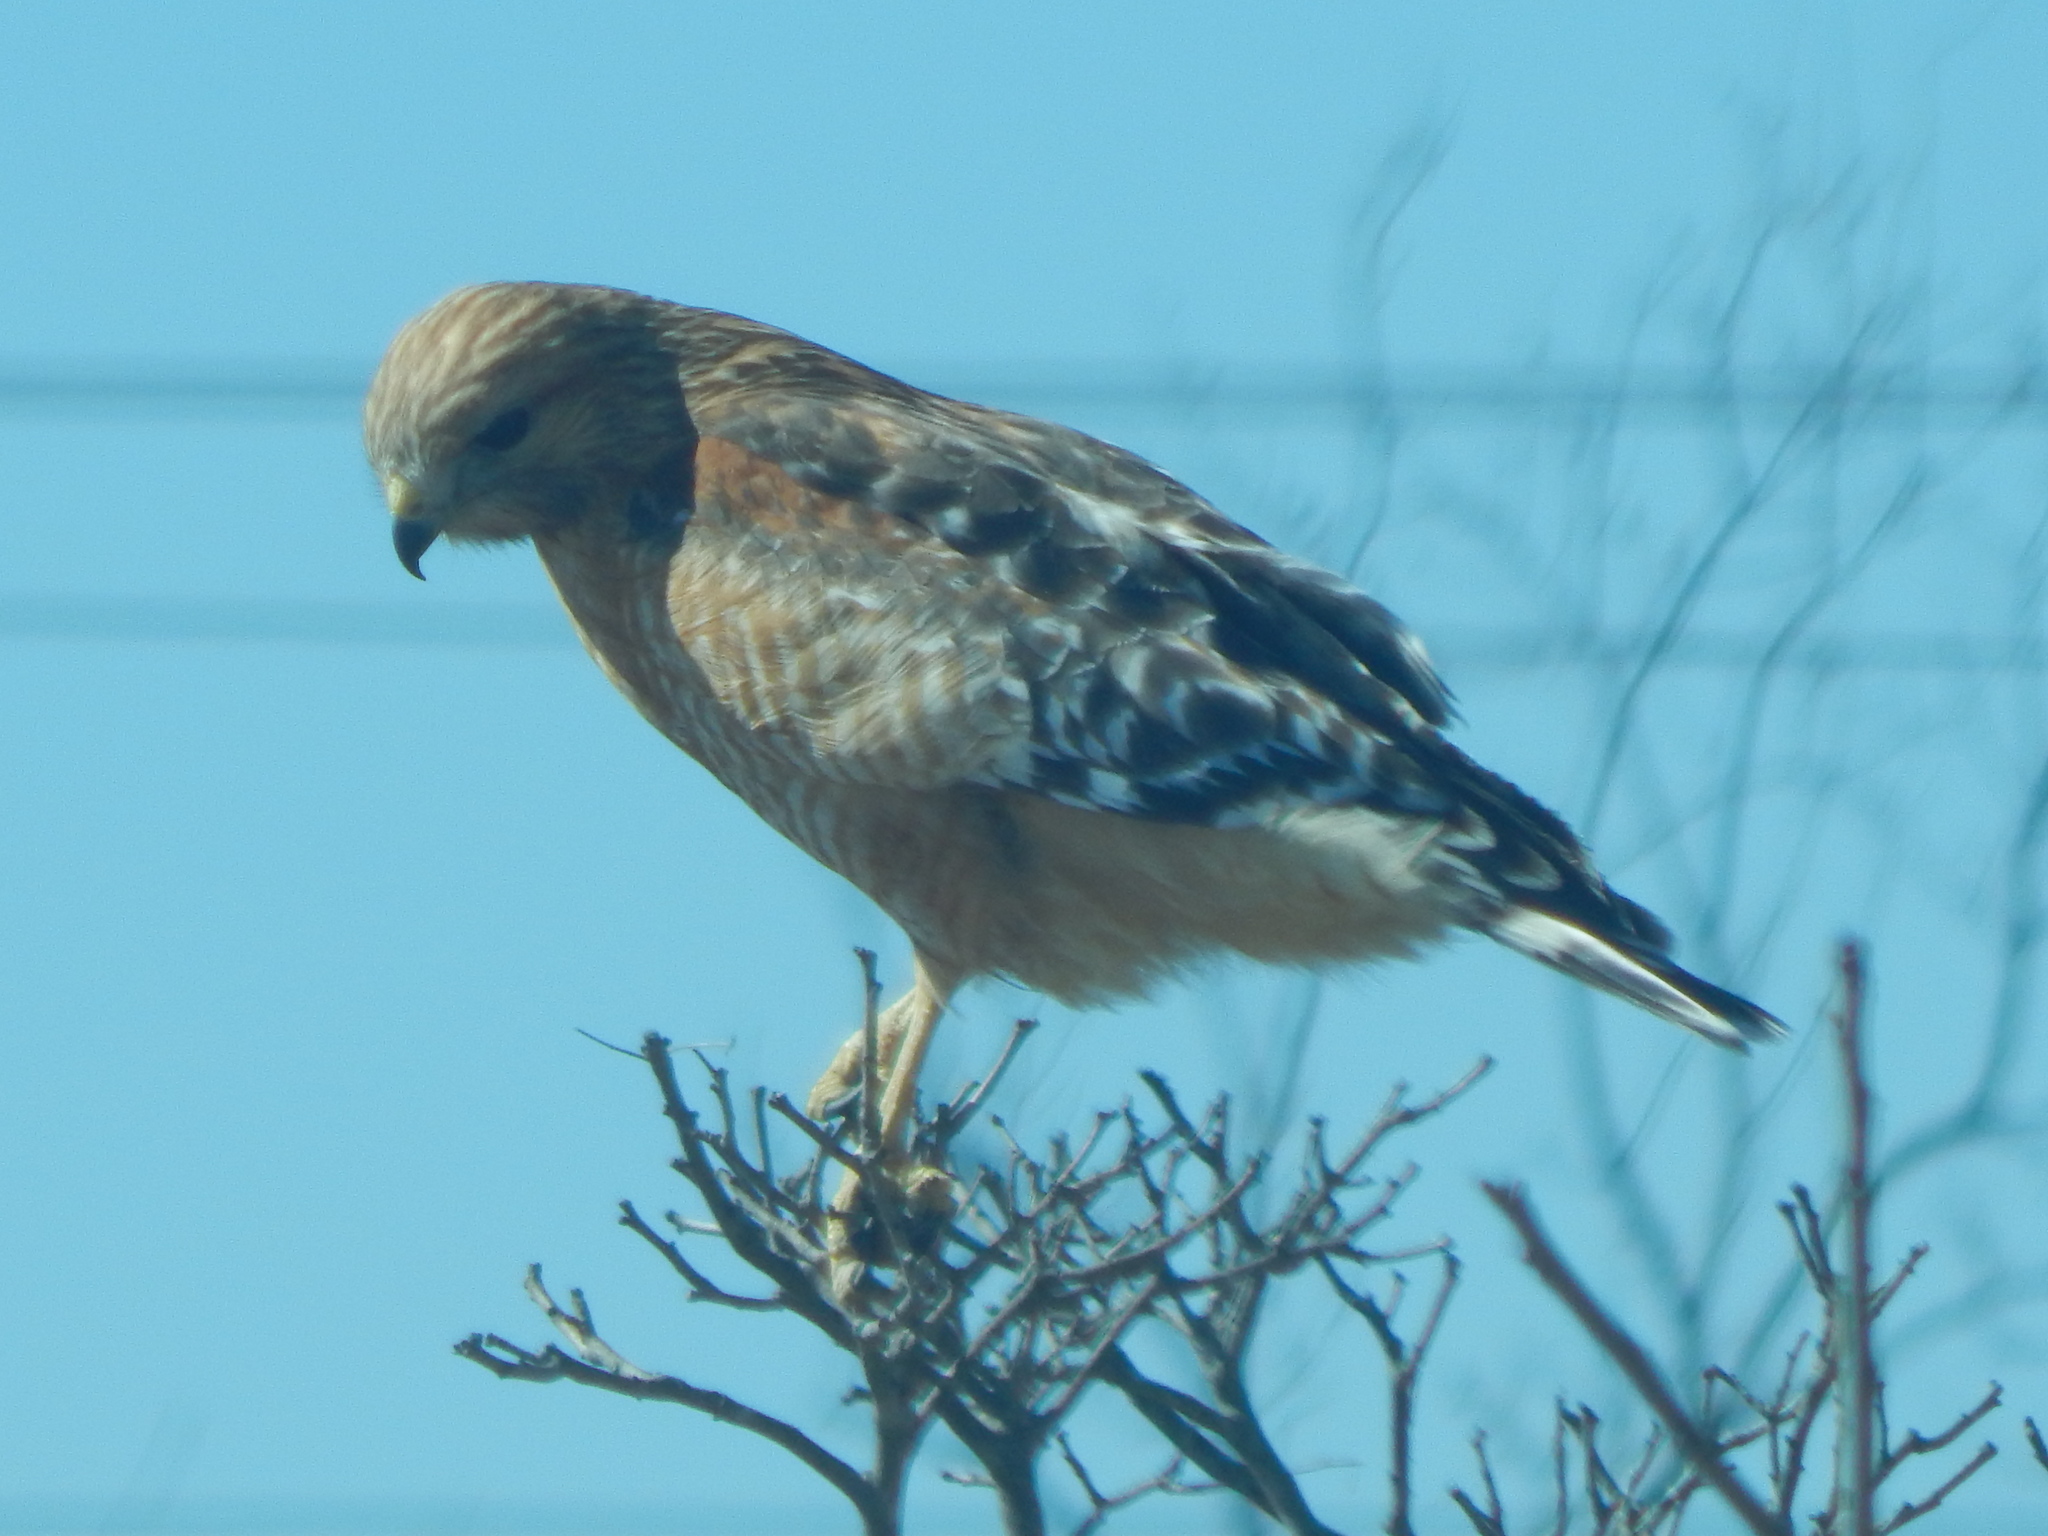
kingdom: Animalia
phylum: Chordata
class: Aves
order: Accipitriformes
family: Accipitridae
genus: Buteo
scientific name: Buteo lineatus
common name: Red-shouldered hawk
